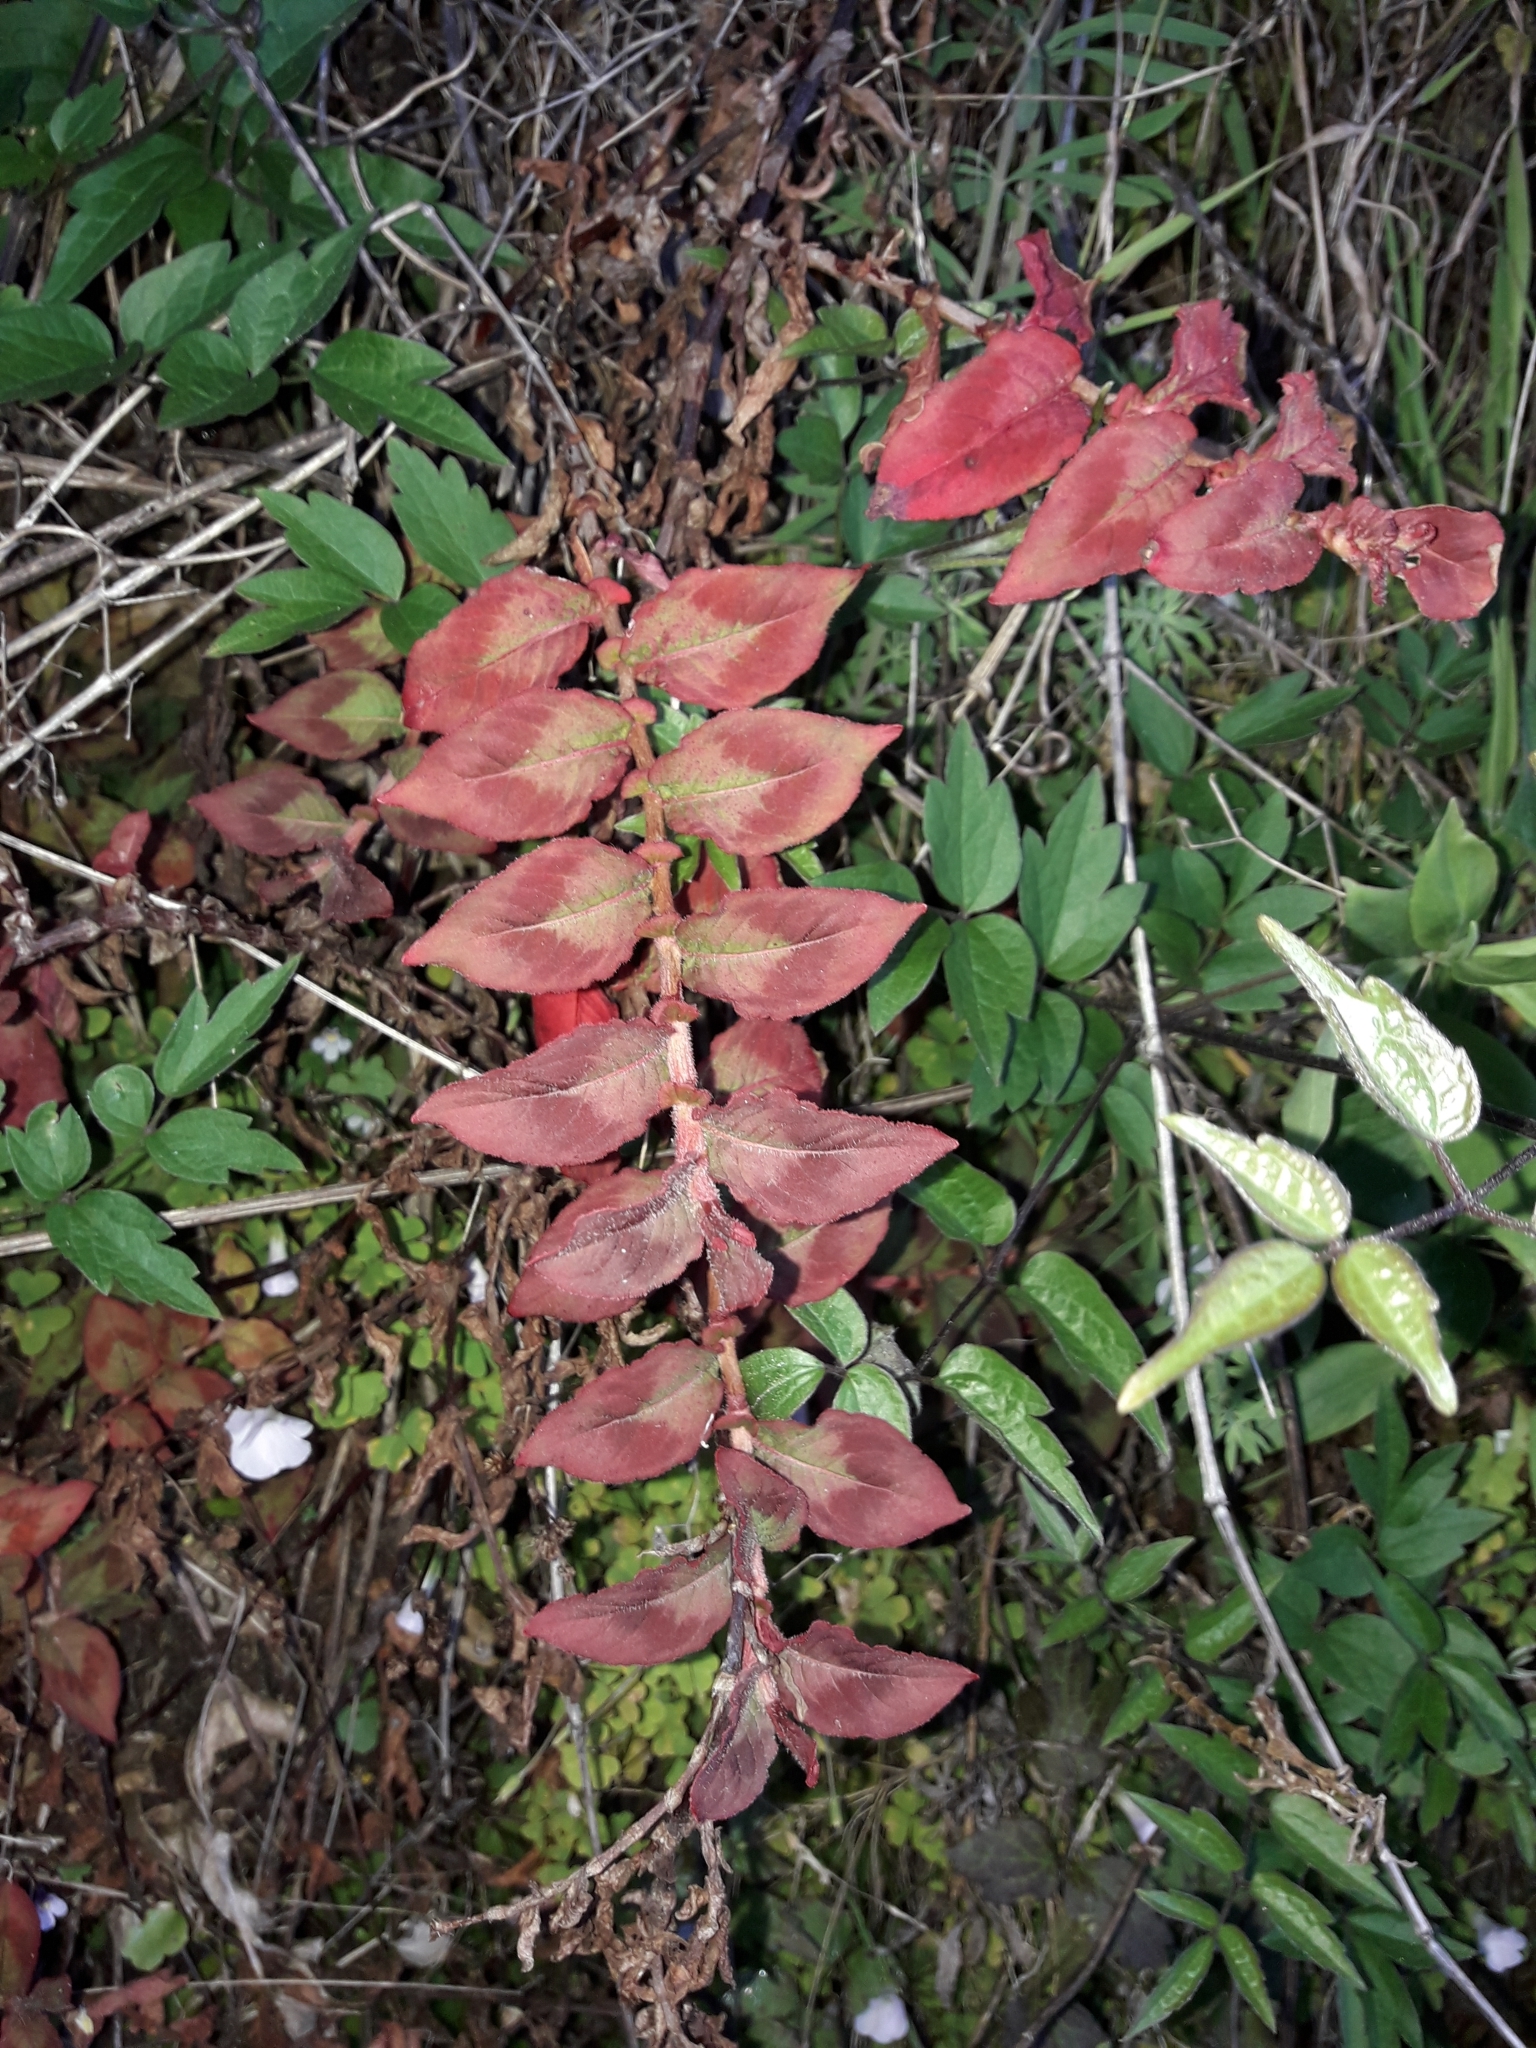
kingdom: Plantae
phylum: Tracheophyta
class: Magnoliopsida
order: Caryophyllales
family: Polygonaceae
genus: Persicaria
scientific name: Persicaria capitata
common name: Pinkhead smartweed
